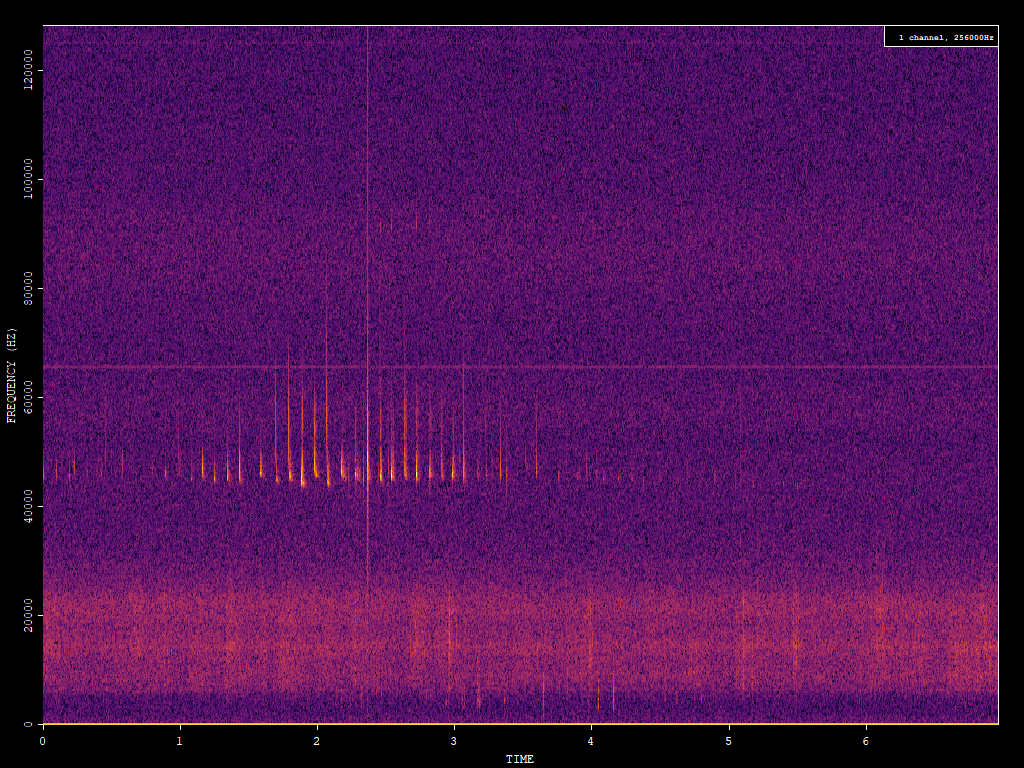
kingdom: Animalia
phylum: Chordata
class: Mammalia
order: Chiroptera
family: Vespertilionidae
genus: Pipistrellus
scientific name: Pipistrellus pipistrellus
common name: Common pipistrelle
